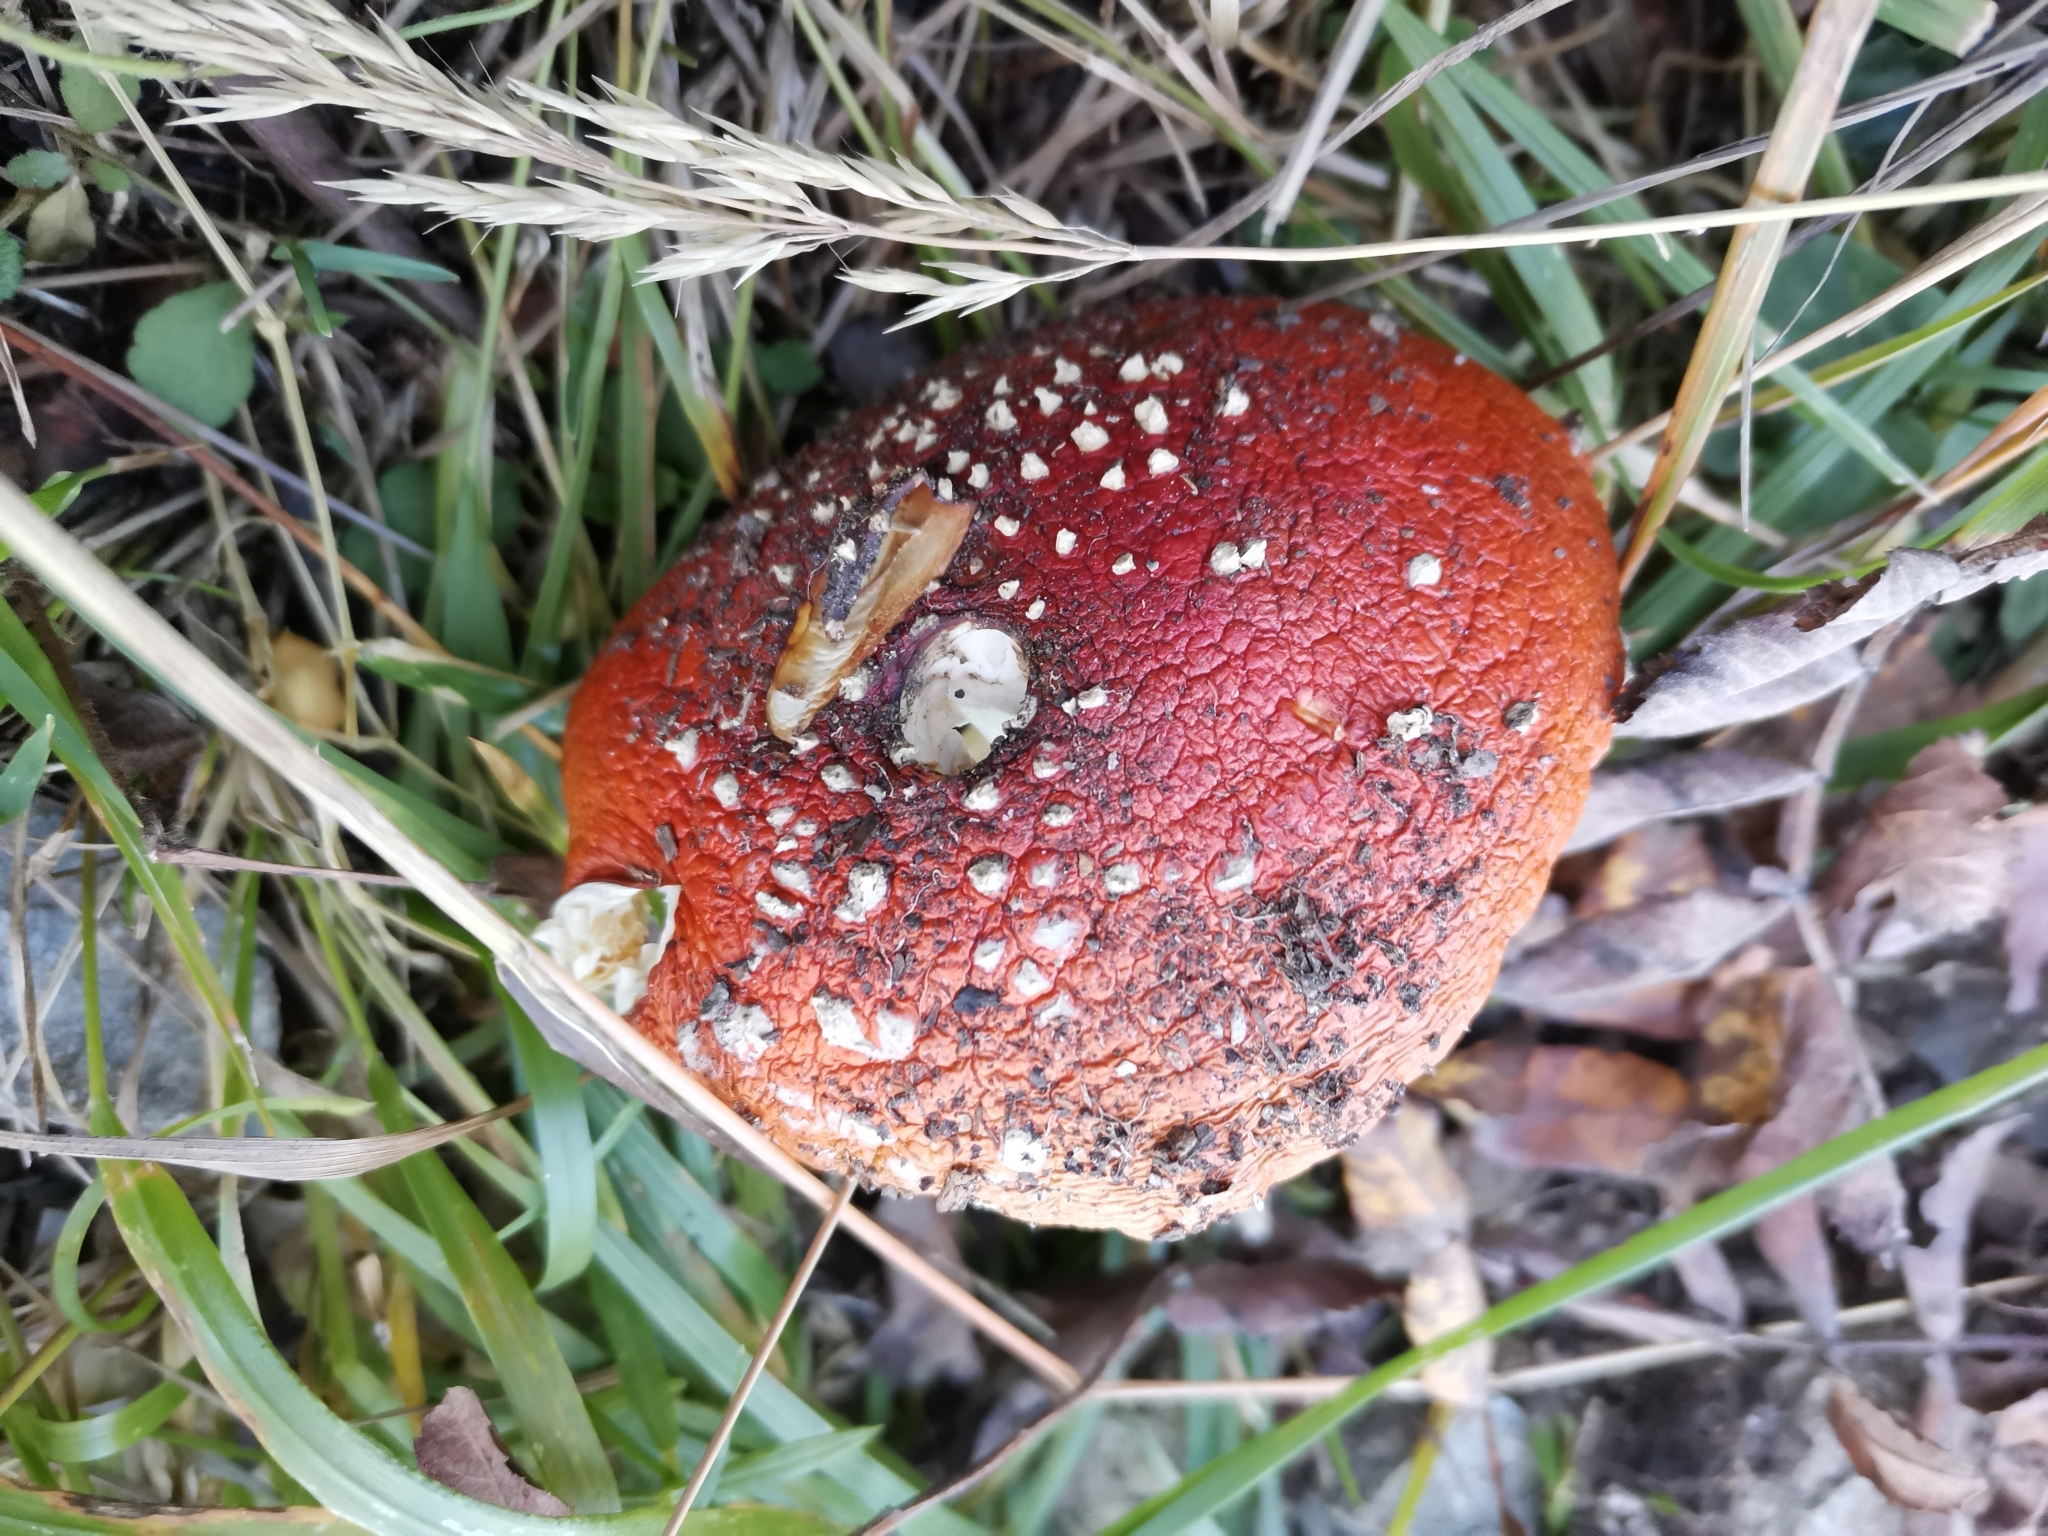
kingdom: Fungi
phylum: Basidiomycota
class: Agaricomycetes
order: Agaricales
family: Amanitaceae
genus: Amanita
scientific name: Amanita muscaria
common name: Fly agaric
